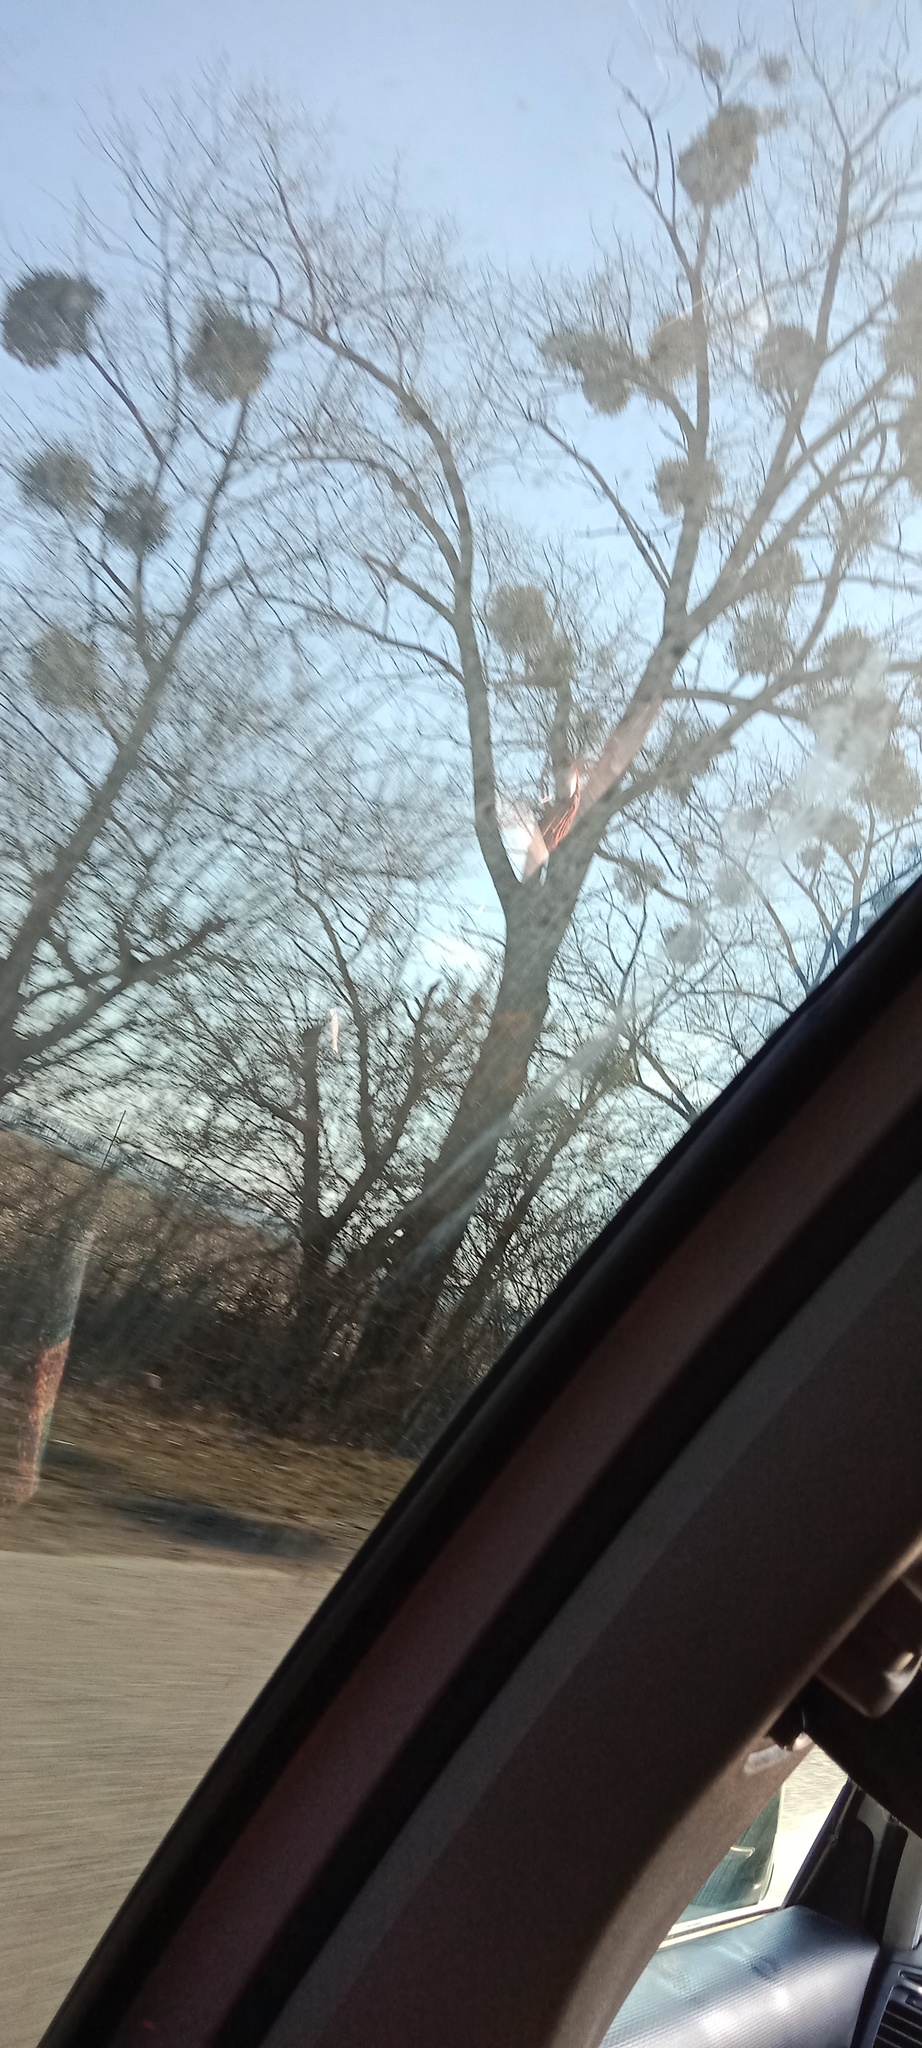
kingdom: Plantae
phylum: Tracheophyta
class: Magnoliopsida
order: Santalales
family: Viscaceae
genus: Viscum
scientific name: Viscum album
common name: Mistletoe
